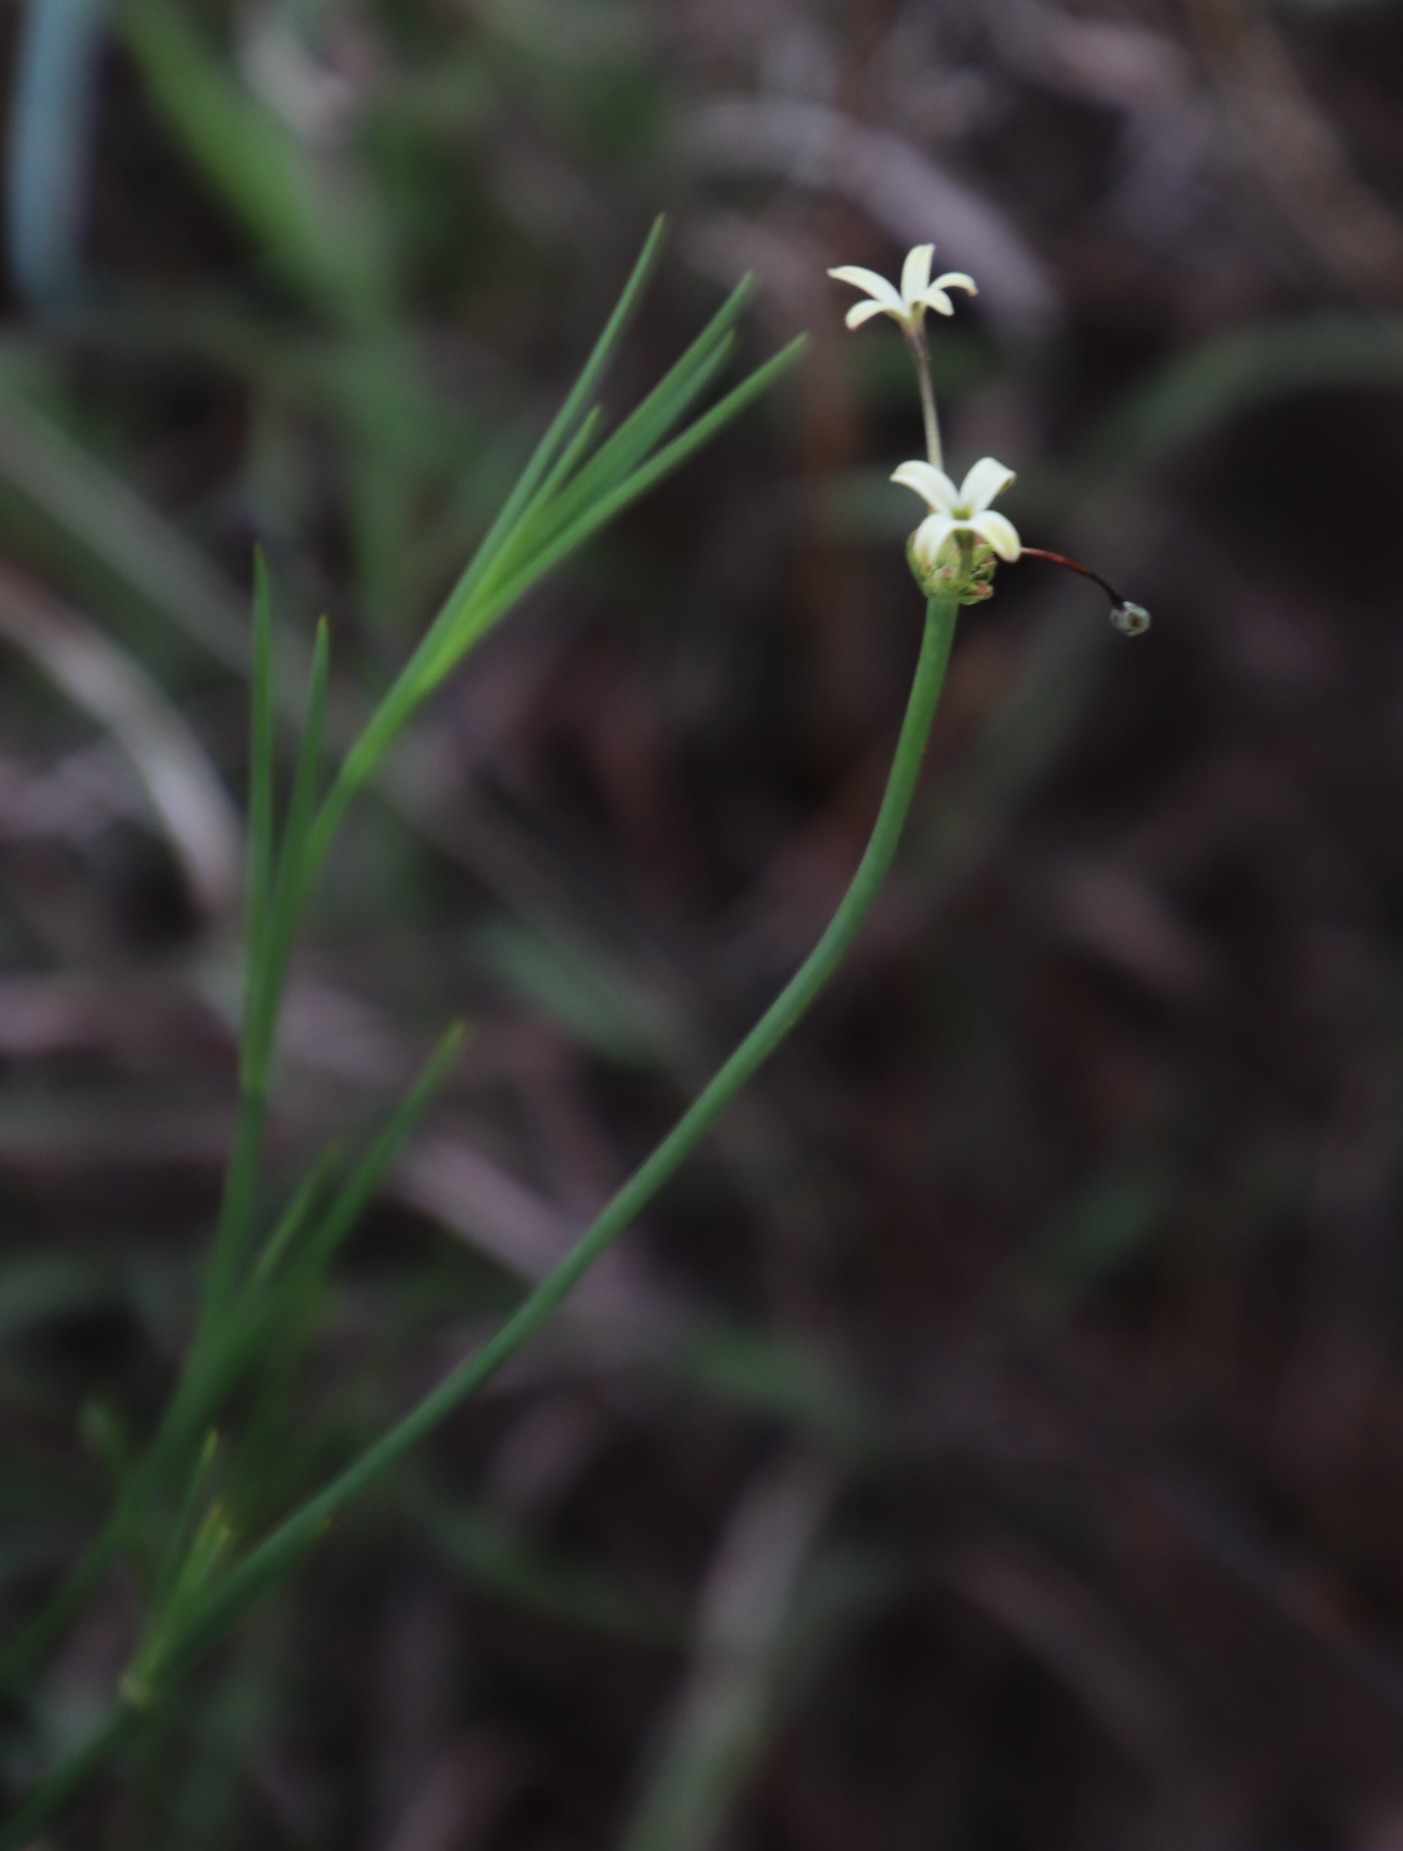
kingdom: Plantae
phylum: Tracheophyta
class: Magnoliopsida
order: Gentianales
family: Rubiaceae
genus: Kohautia
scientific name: Kohautia amatymbica
